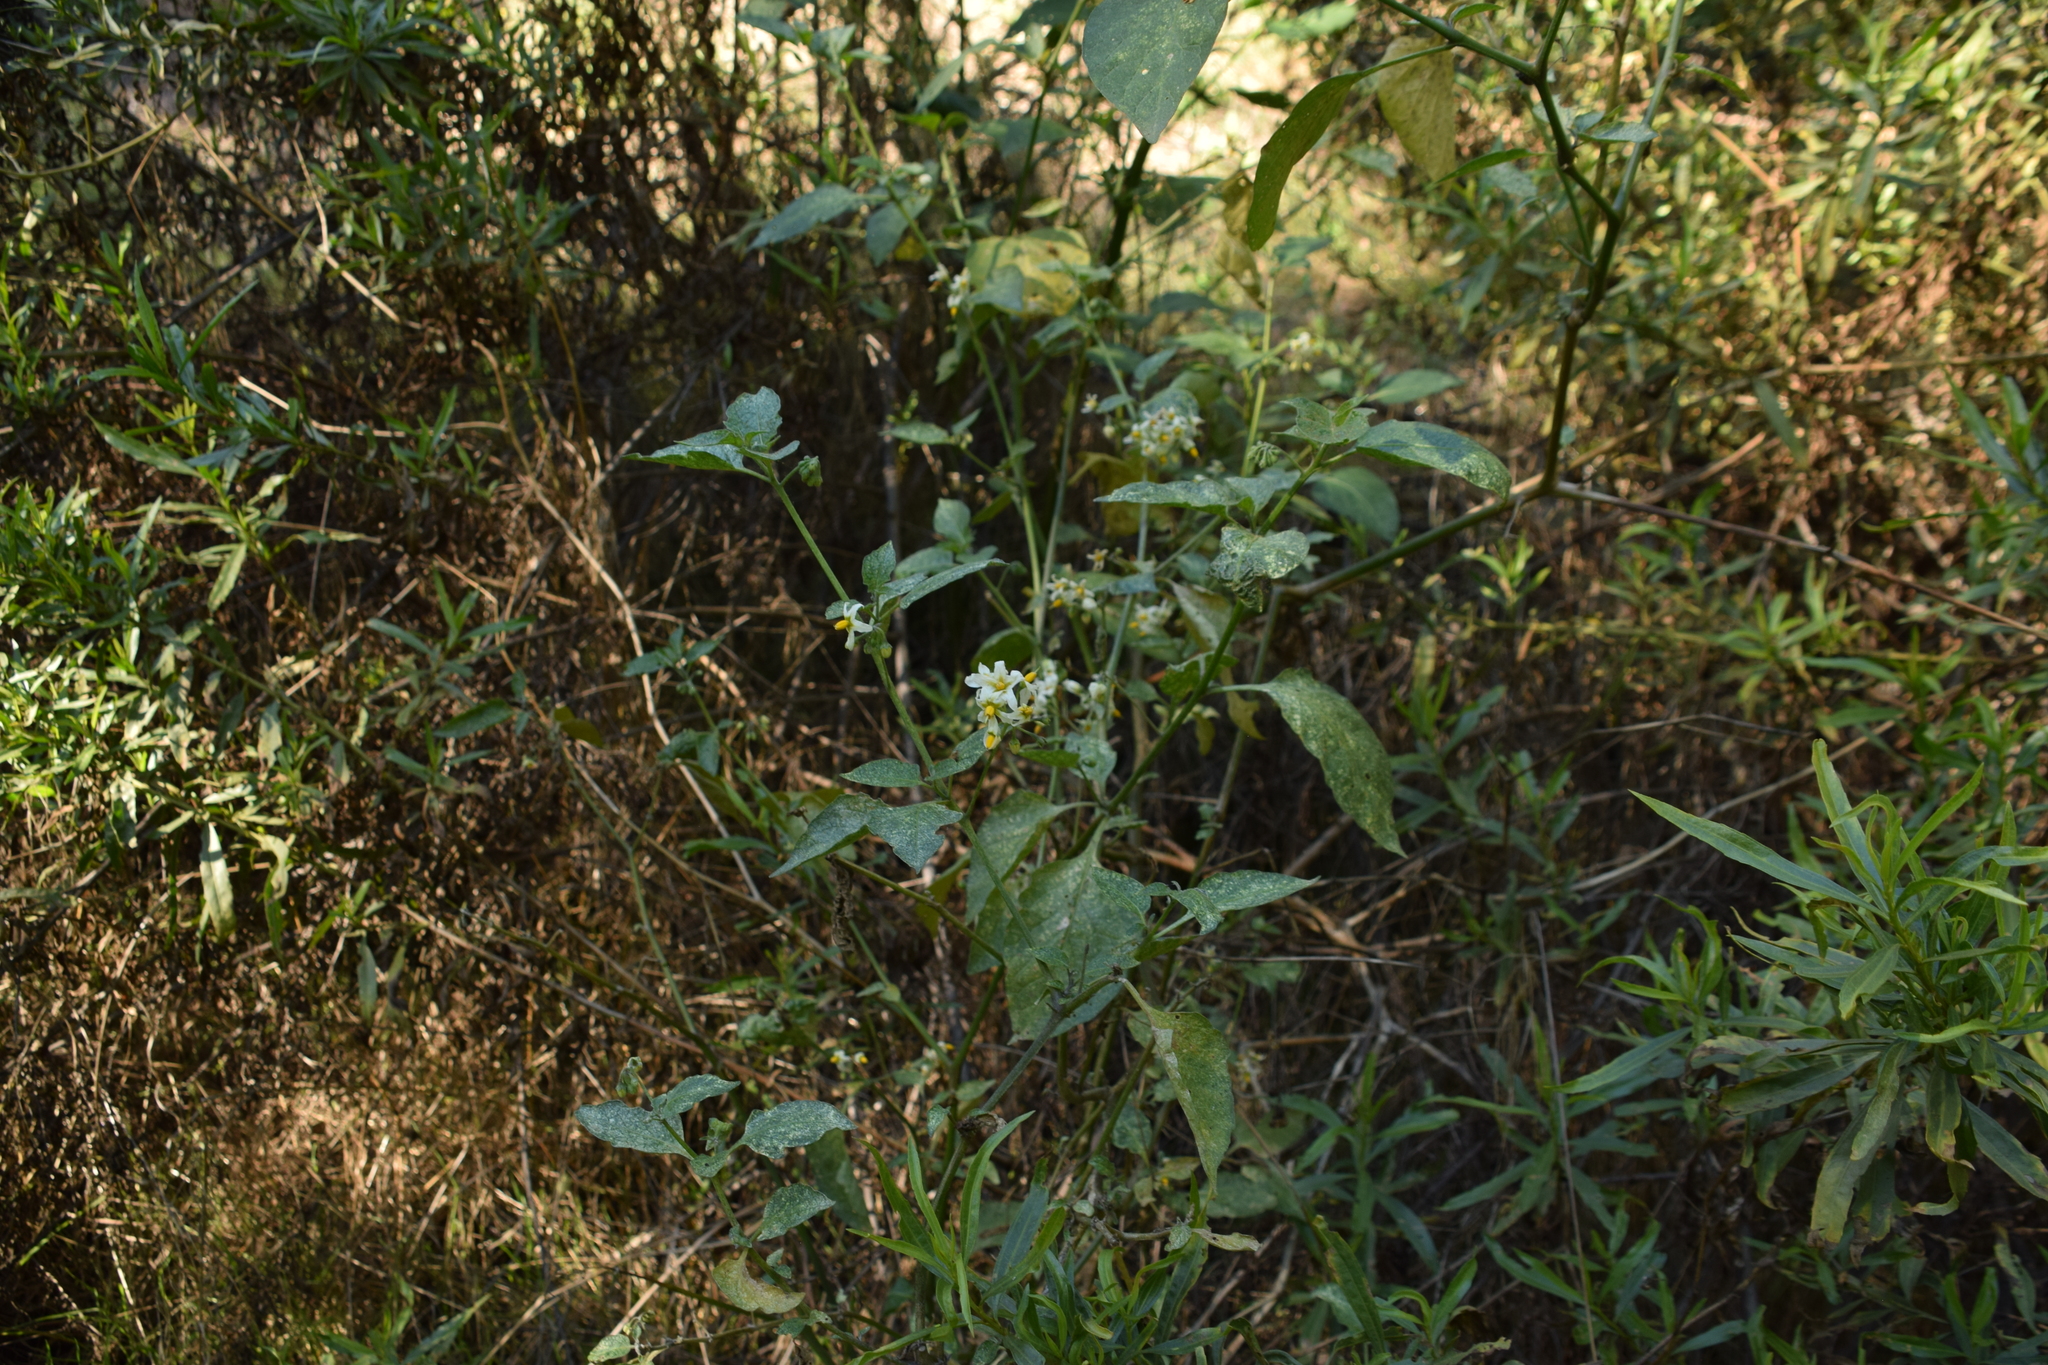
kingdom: Plantae
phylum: Tracheophyta
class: Magnoliopsida
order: Solanales
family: Solanaceae
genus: Solanum
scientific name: Solanum douglasii
